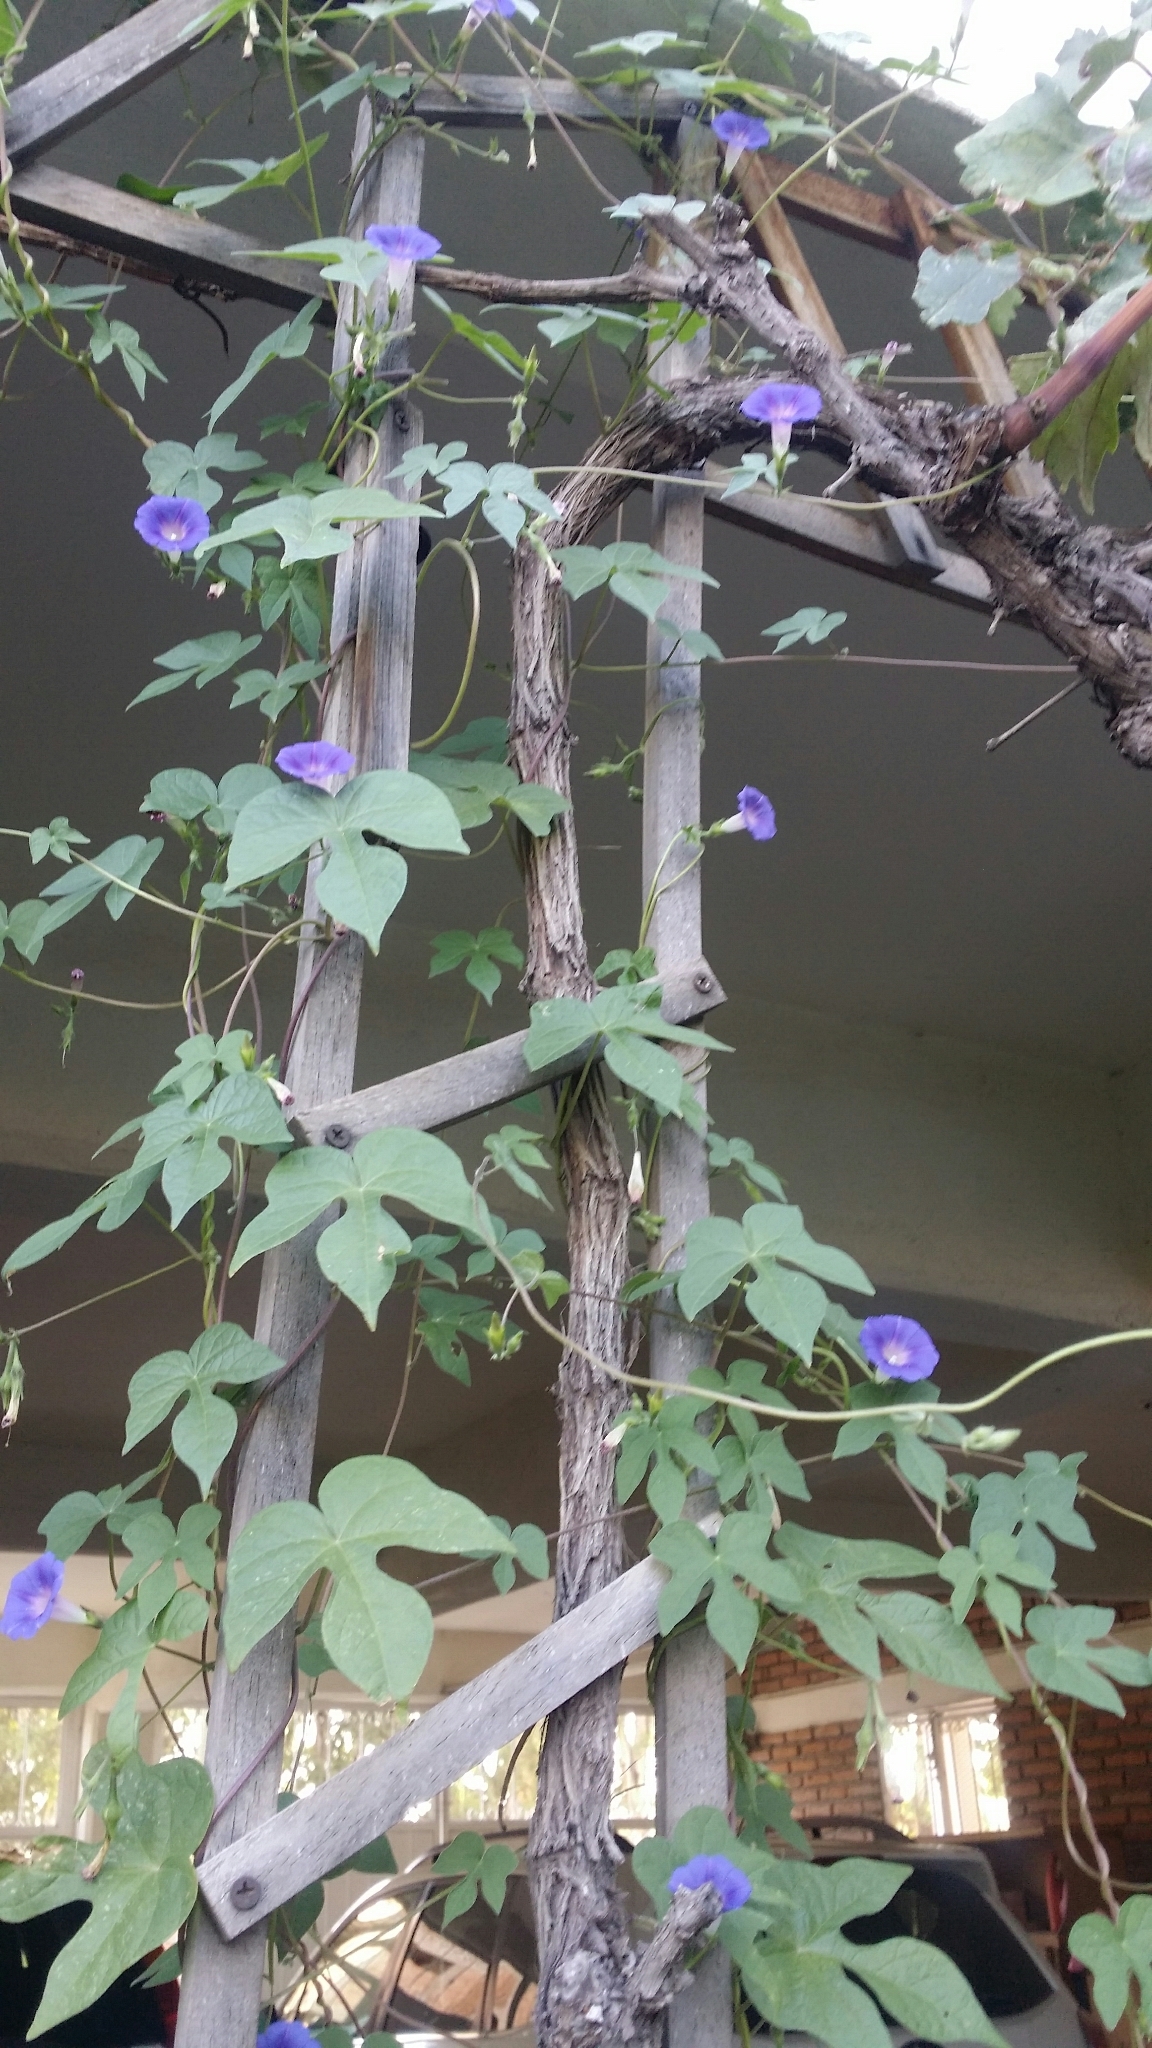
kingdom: Plantae
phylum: Tracheophyta
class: Magnoliopsida
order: Solanales
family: Convolvulaceae
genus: Ipomoea
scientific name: Ipomoea purpurea
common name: Common morning-glory
